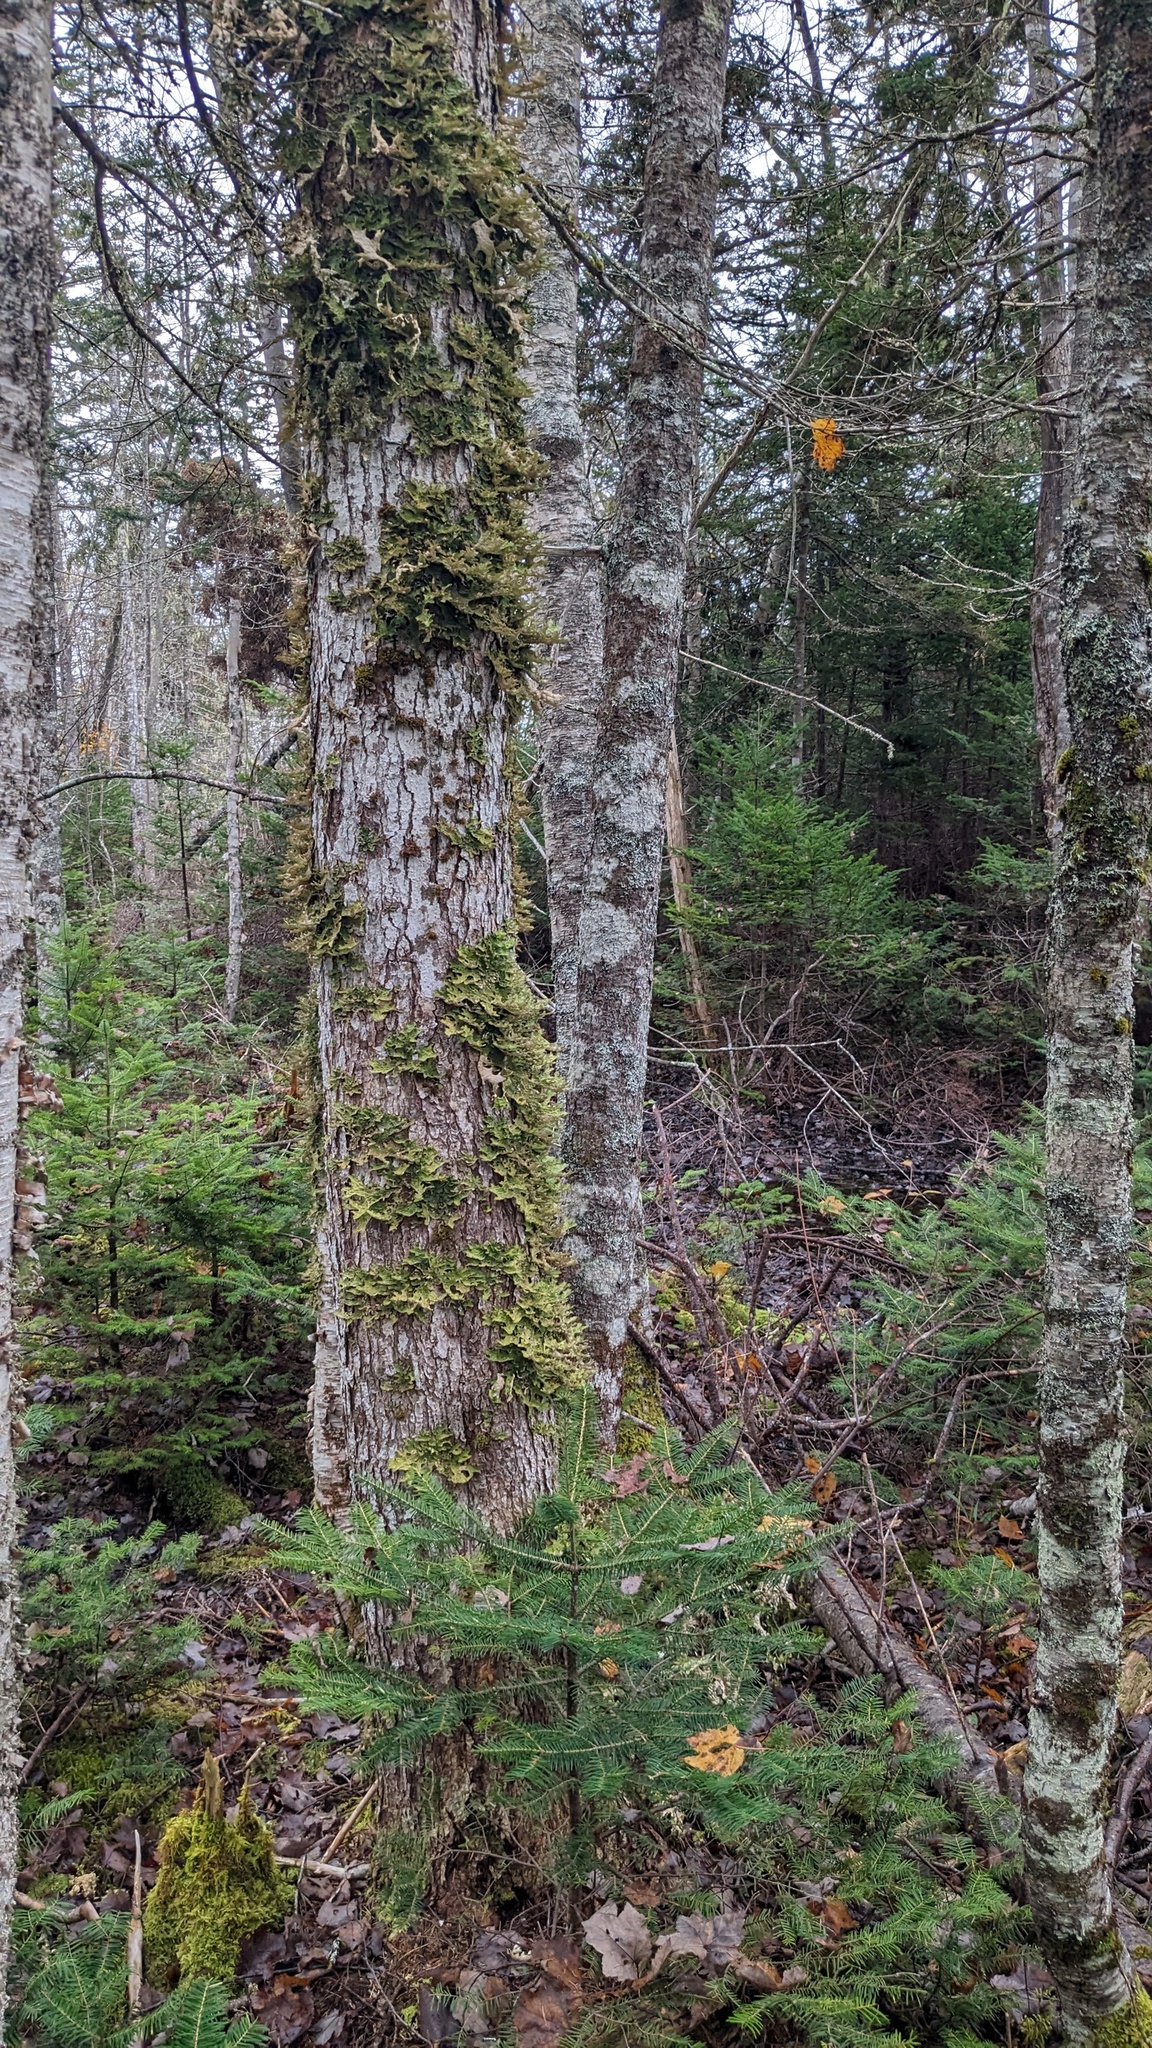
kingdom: Fungi
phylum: Ascomycota
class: Lecanoromycetes
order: Peltigerales
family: Lobariaceae
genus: Lobaria
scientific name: Lobaria pulmonaria
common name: Lungwort
